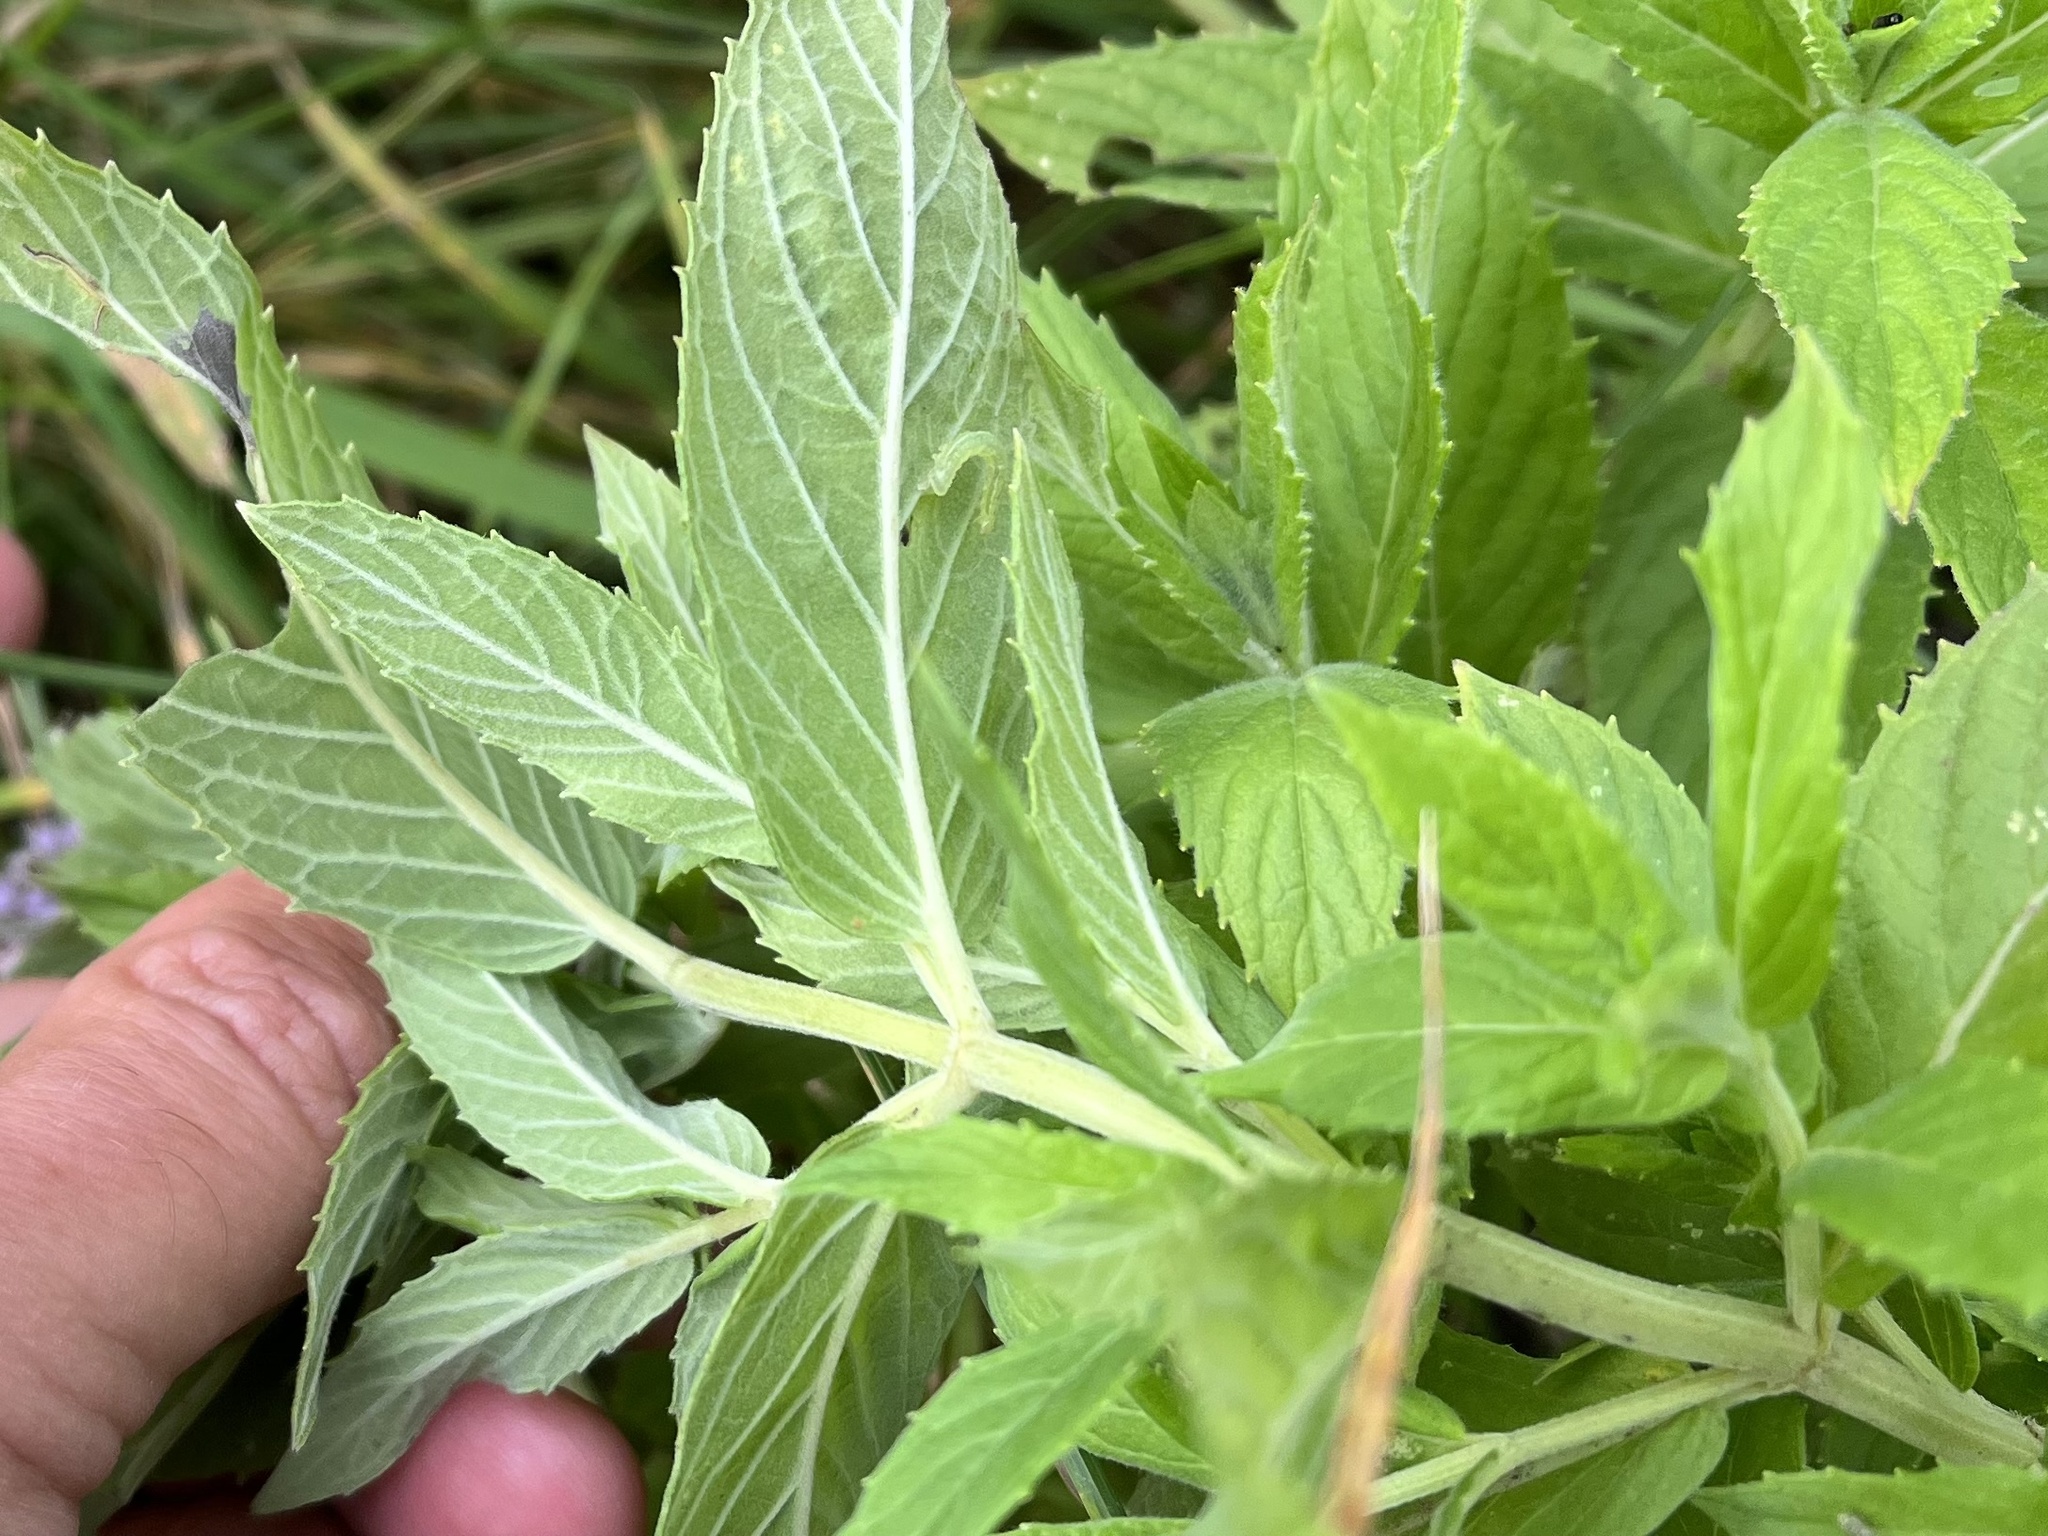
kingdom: Plantae
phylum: Tracheophyta
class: Magnoliopsida
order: Lamiales
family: Lamiaceae
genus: Mentha
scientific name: Mentha longifolia
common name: Horse mint
